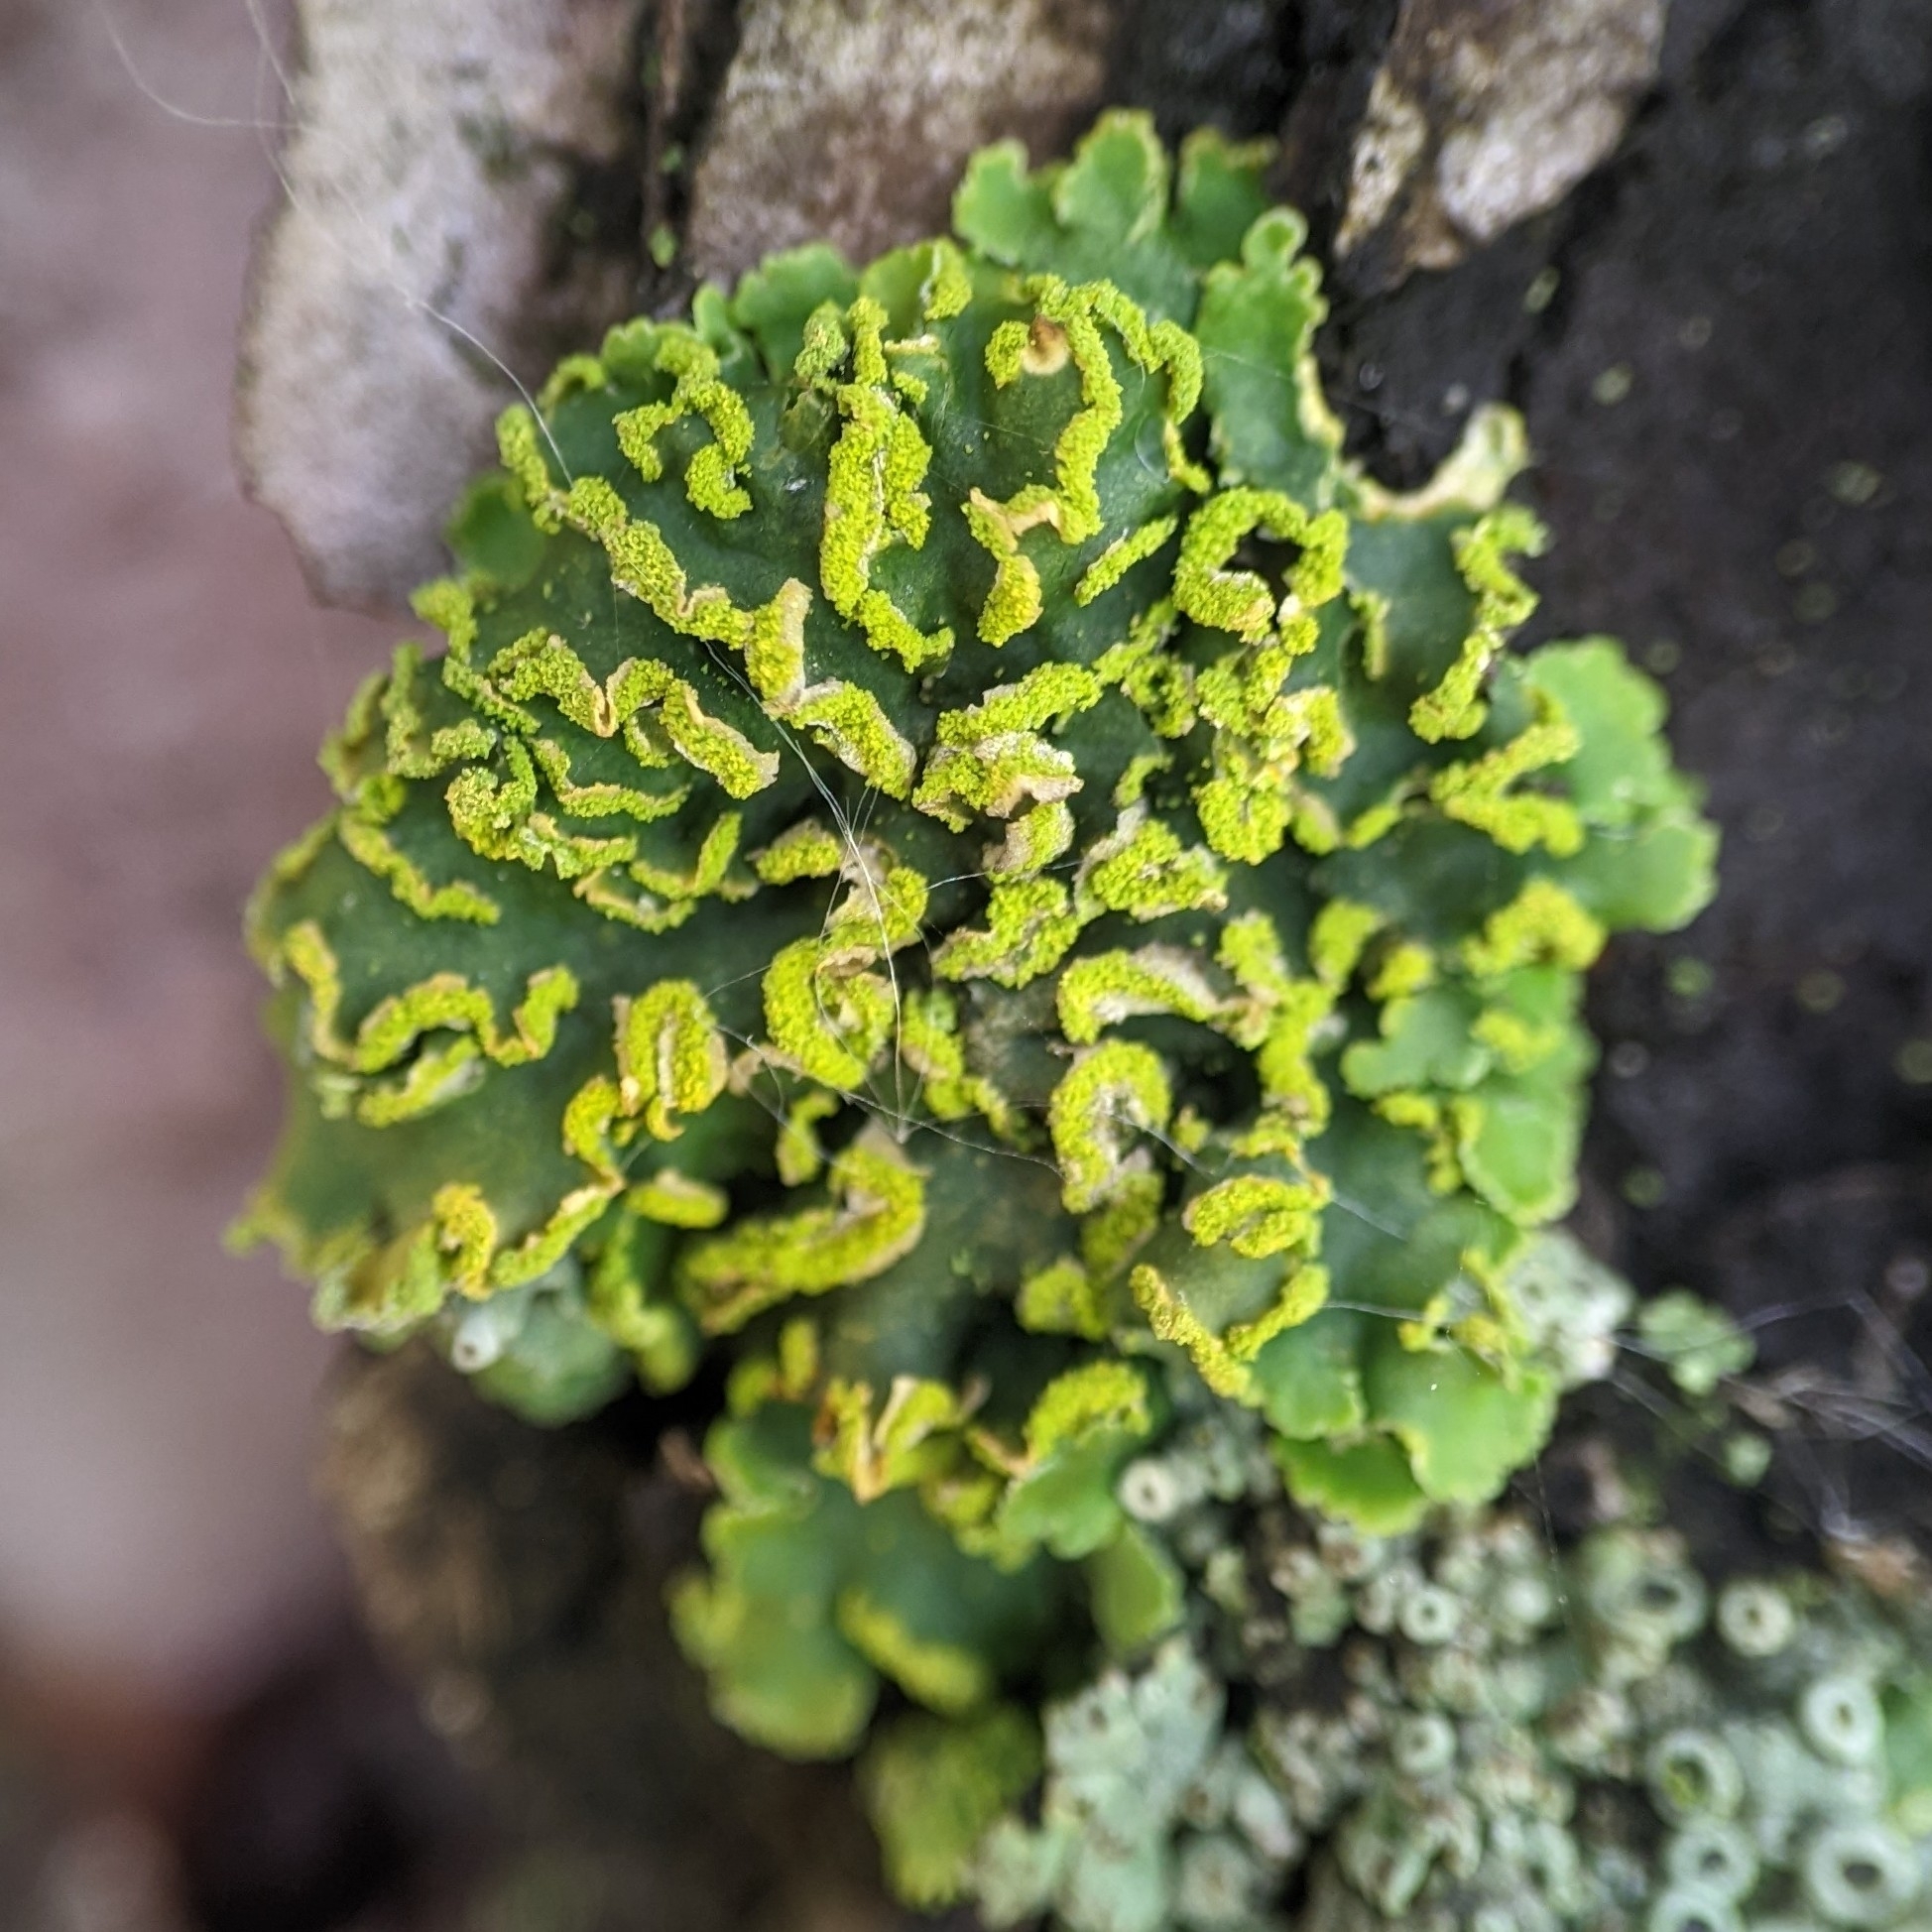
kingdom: Fungi
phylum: Ascomycota
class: Lecanoromycetes
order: Teloschistales
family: Teloschistaceae
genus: Xanthoria
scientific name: Xanthoria ulophyllodes
